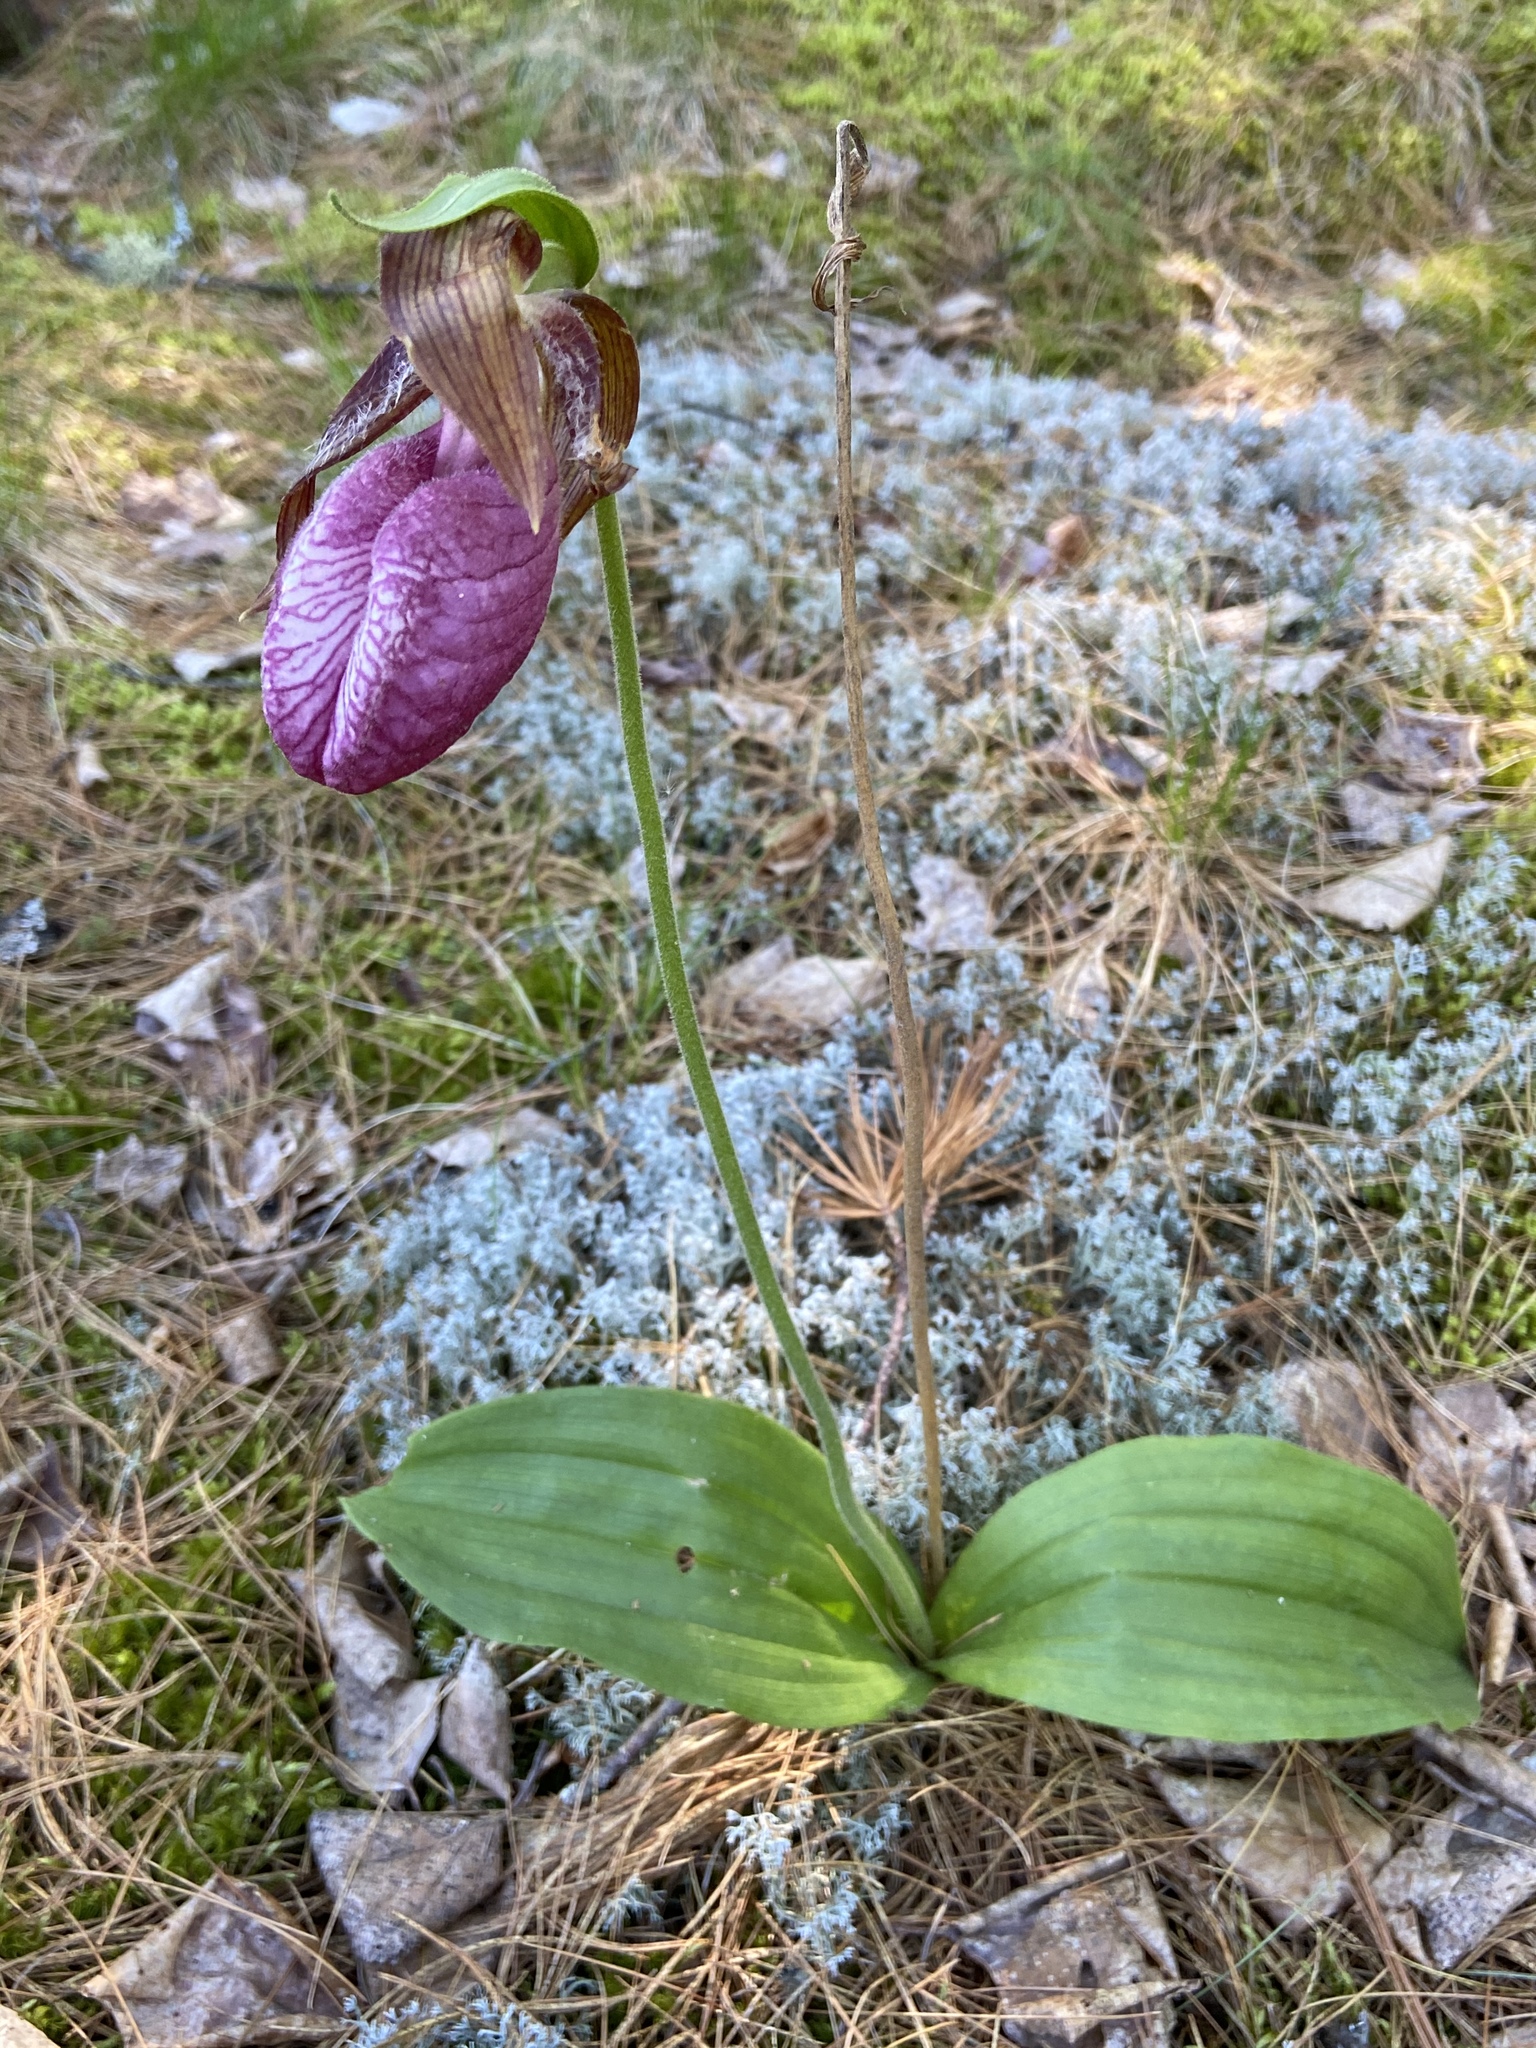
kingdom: Plantae
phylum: Tracheophyta
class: Liliopsida
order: Asparagales
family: Orchidaceae
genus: Cypripedium
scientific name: Cypripedium acaule
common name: Pink lady's-slipper
